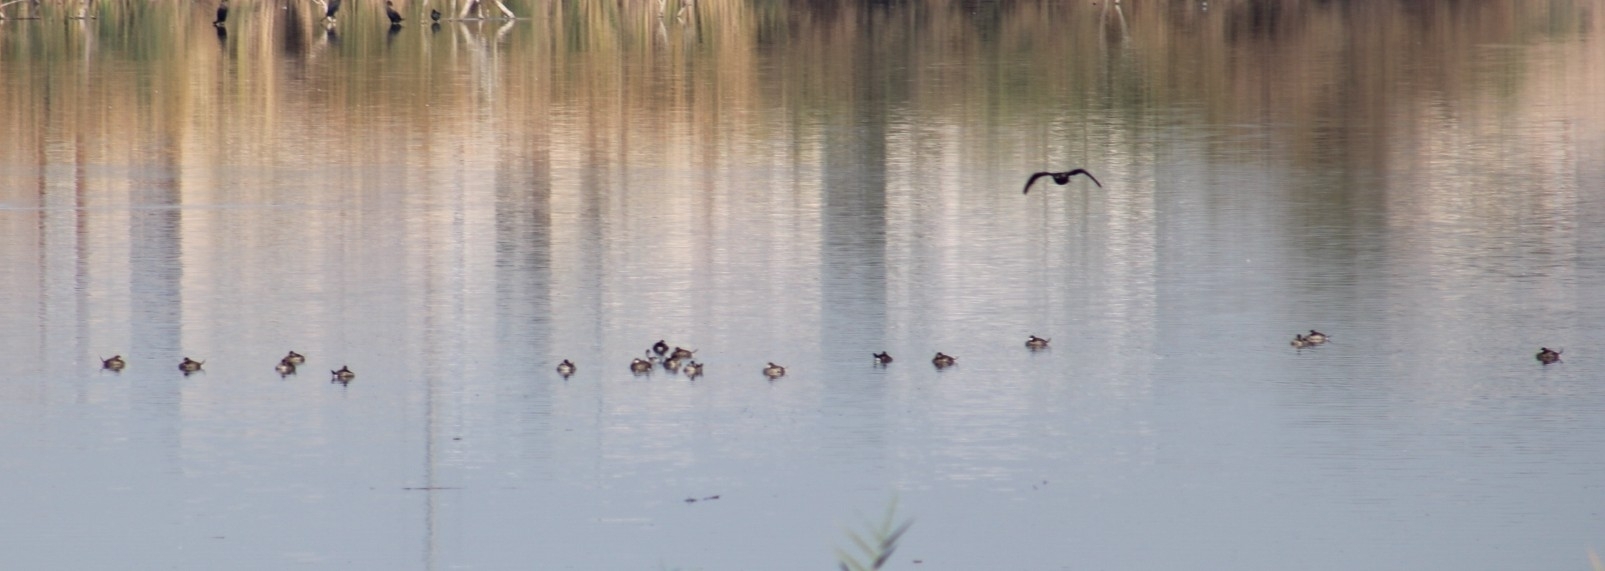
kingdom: Animalia
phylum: Chordata
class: Aves
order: Anseriformes
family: Anatidae
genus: Oxyura
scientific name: Oxyura jamaicensis
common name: Ruddy duck
